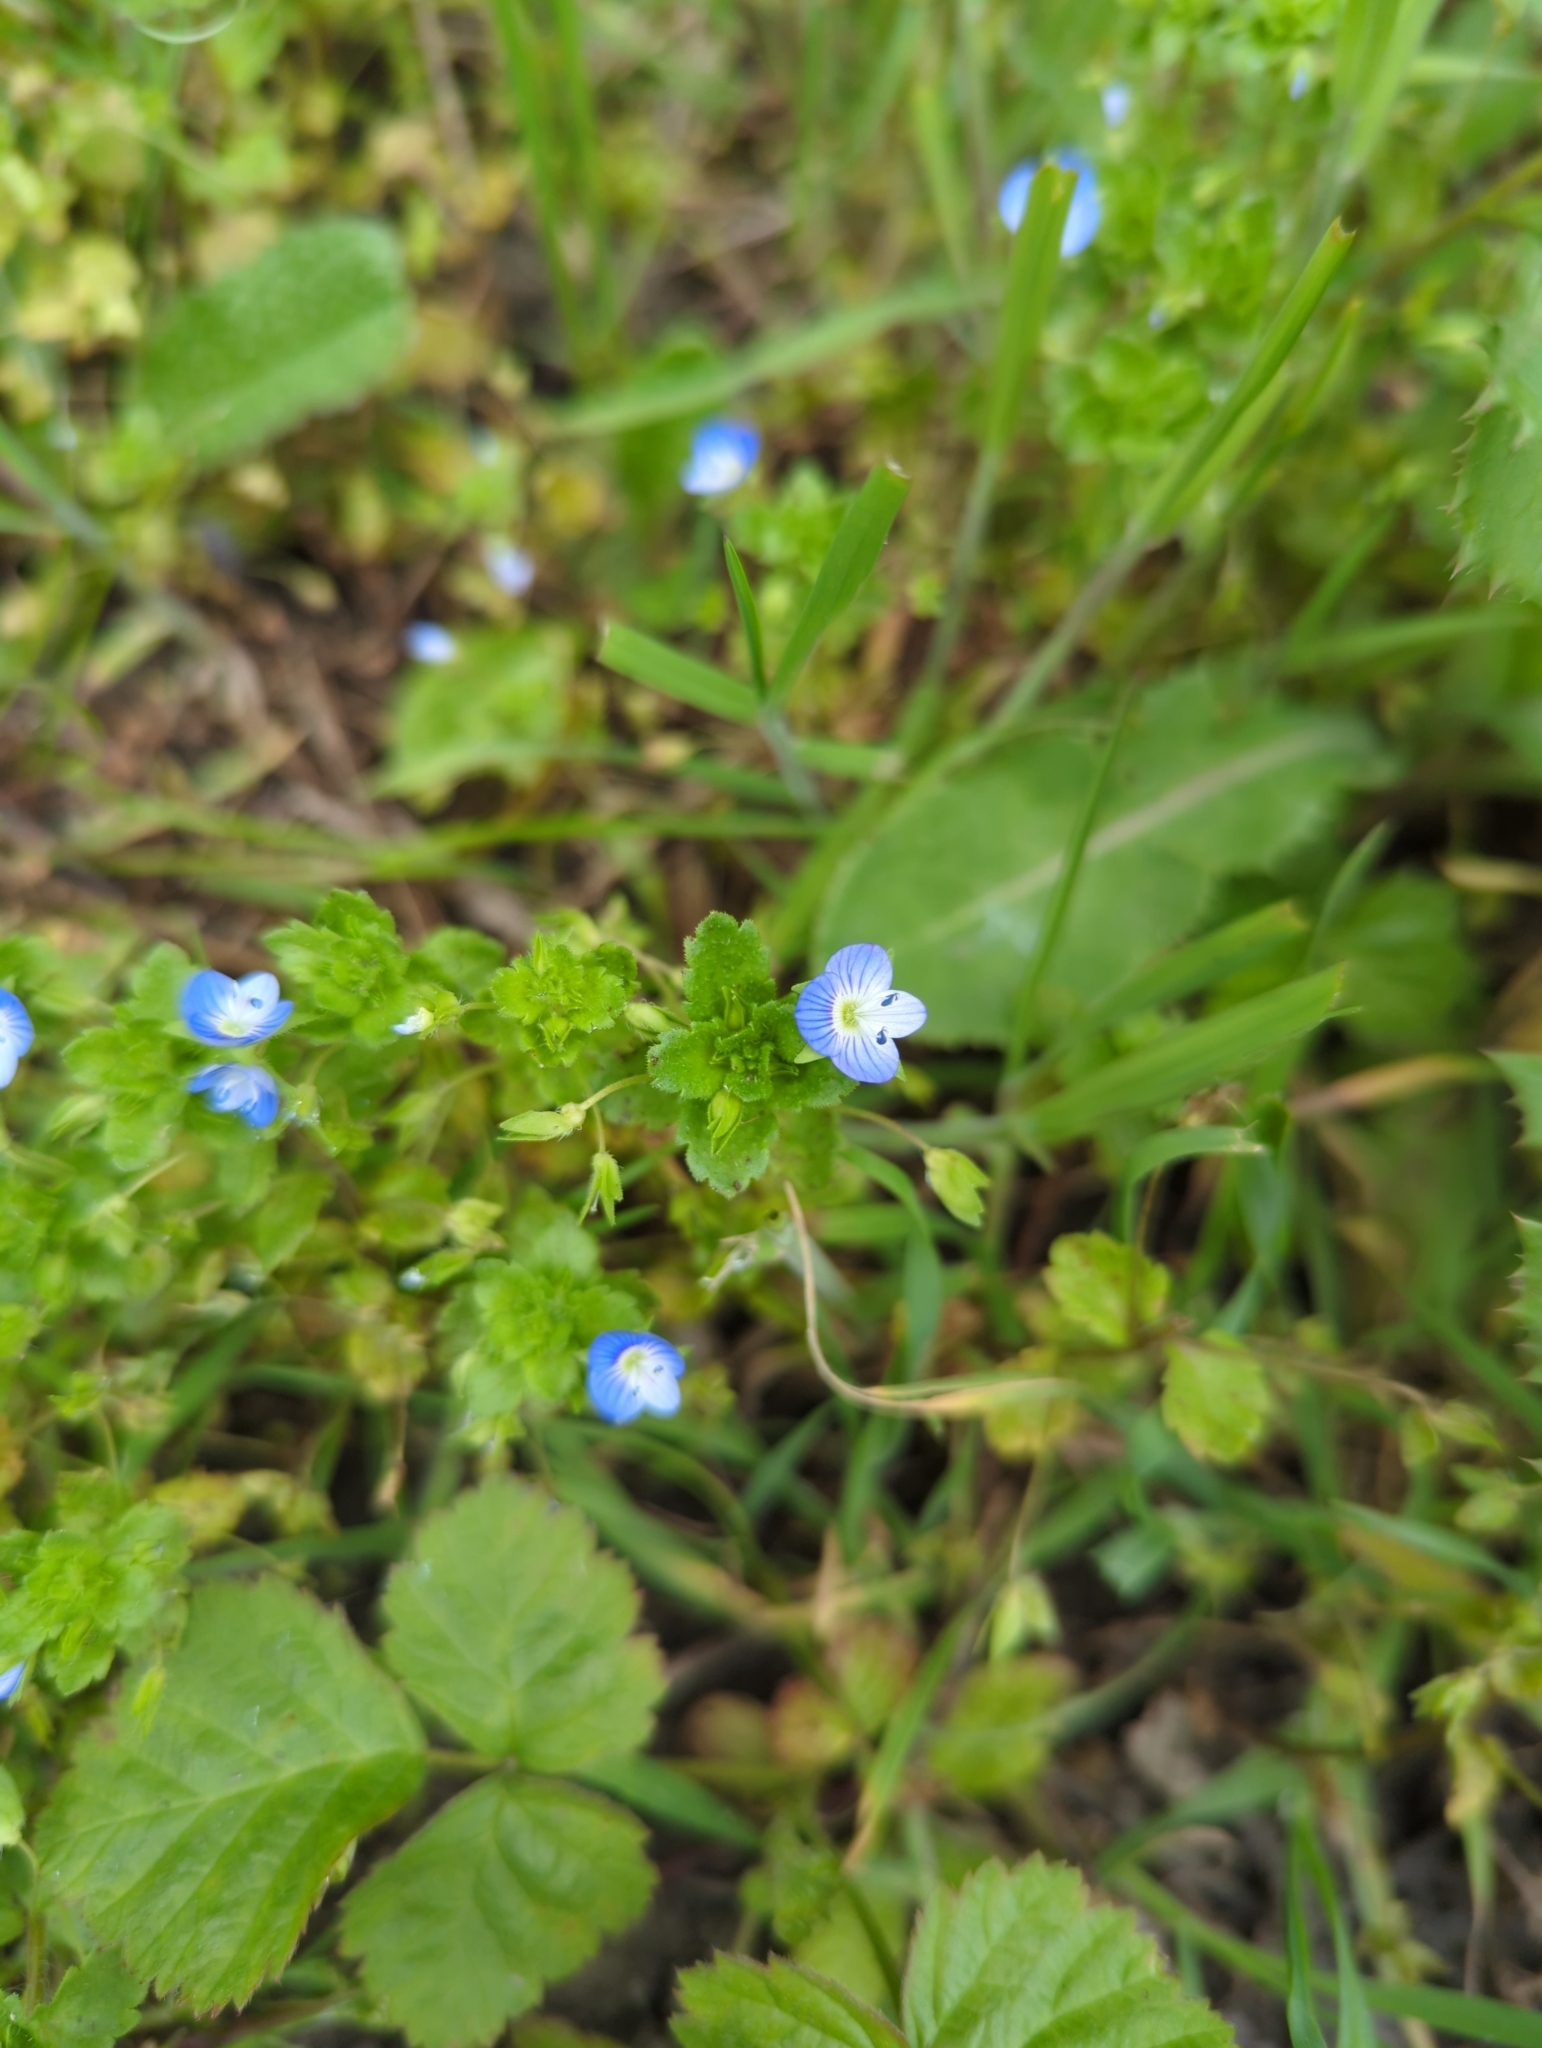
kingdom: Plantae
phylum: Tracheophyta
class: Magnoliopsida
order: Lamiales
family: Plantaginaceae
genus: Veronica
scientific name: Veronica persica
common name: Common field-speedwell
